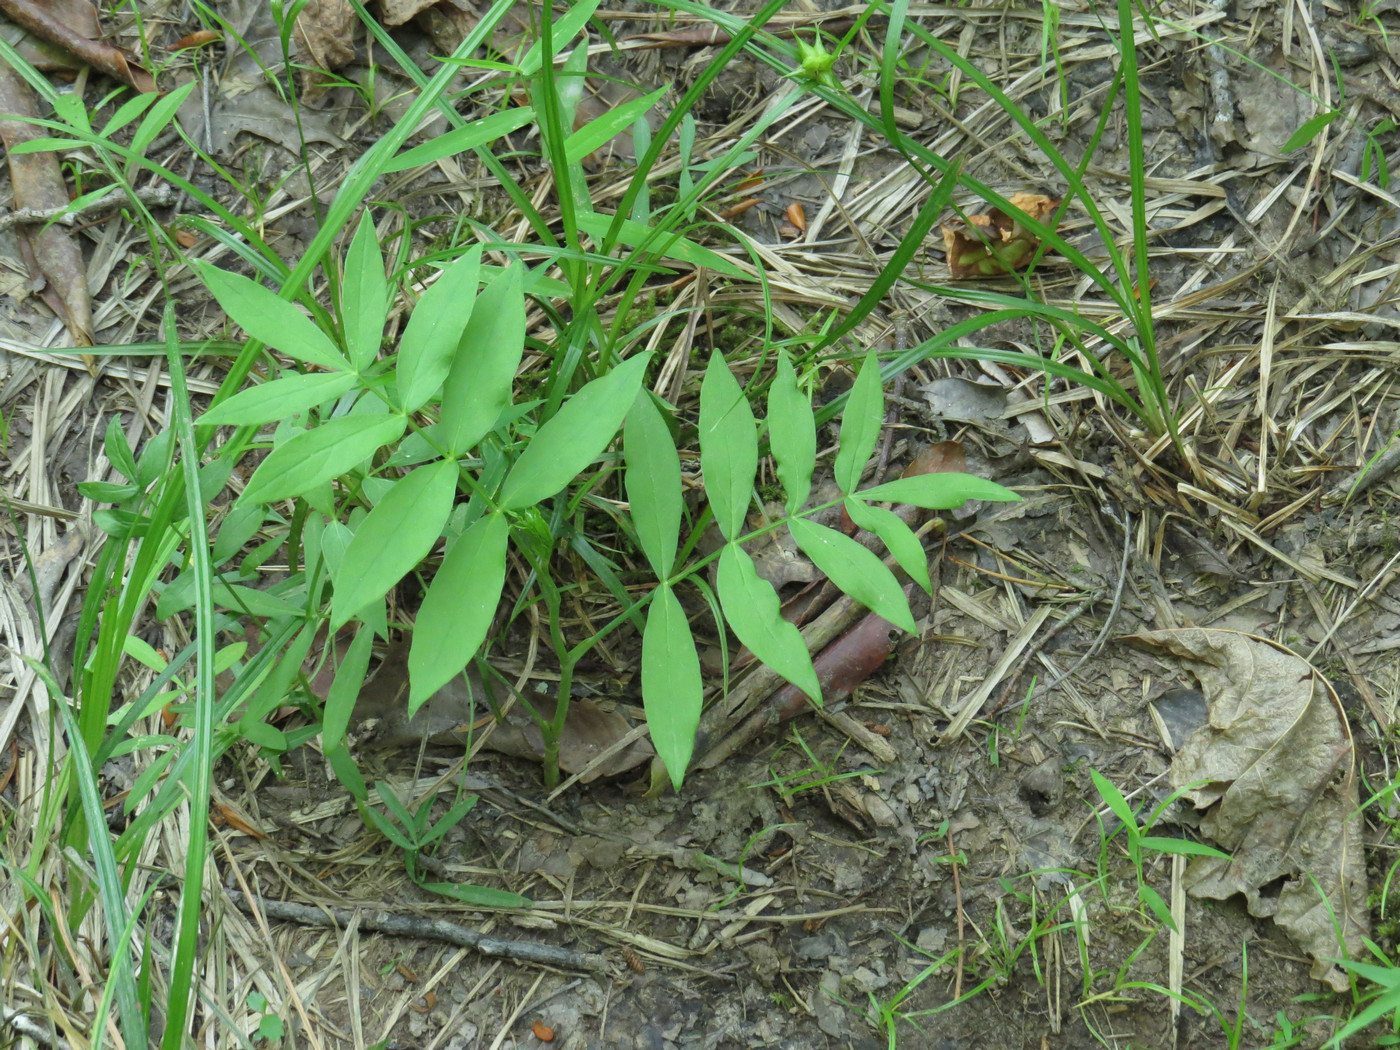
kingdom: Plantae
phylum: Tracheophyta
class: Magnoliopsida
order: Apiales
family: Apiaceae
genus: Oxypolis
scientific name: Oxypolis rigidior
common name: Cowbane
